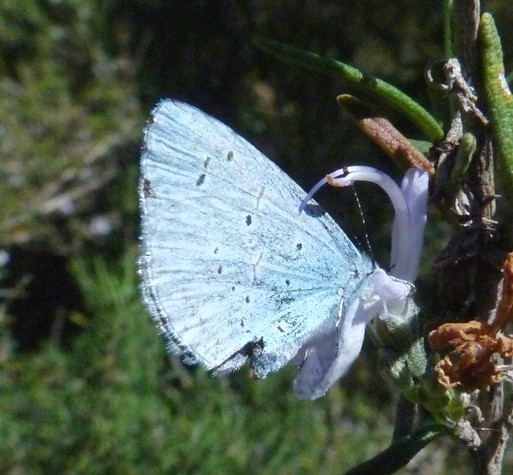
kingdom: Animalia
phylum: Arthropoda
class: Insecta
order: Lepidoptera
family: Lycaenidae
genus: Celastrina
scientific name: Celastrina argiolus
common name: Holly blue
